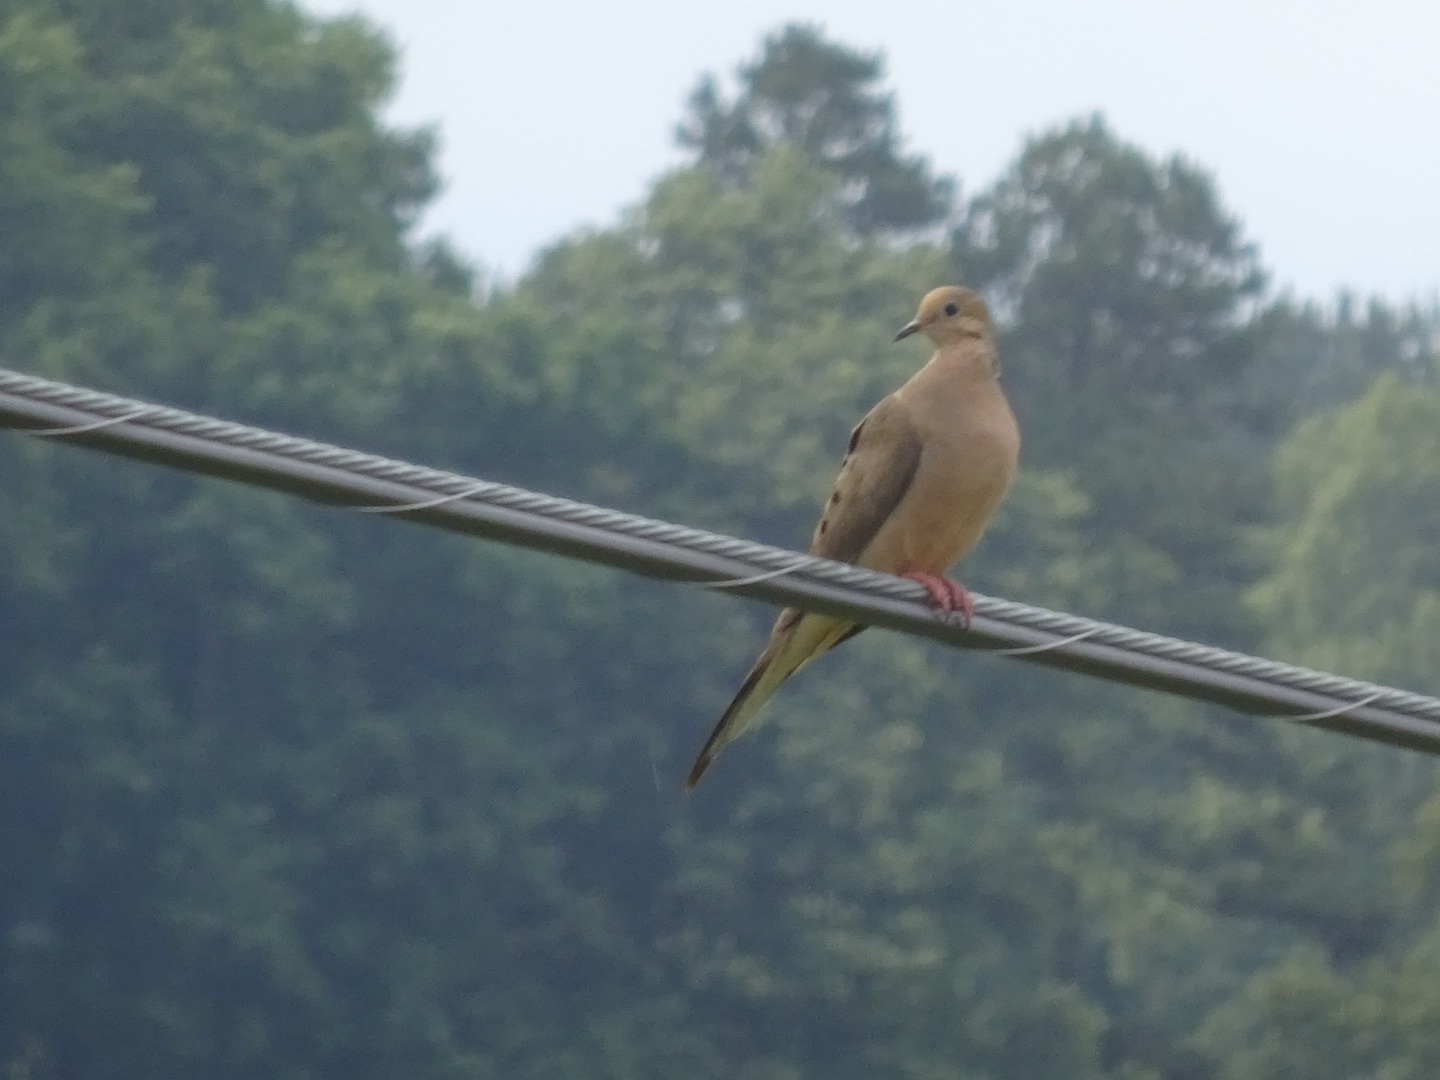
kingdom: Animalia
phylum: Chordata
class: Aves
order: Columbiformes
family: Columbidae
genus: Zenaida
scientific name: Zenaida macroura
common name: Mourning dove
